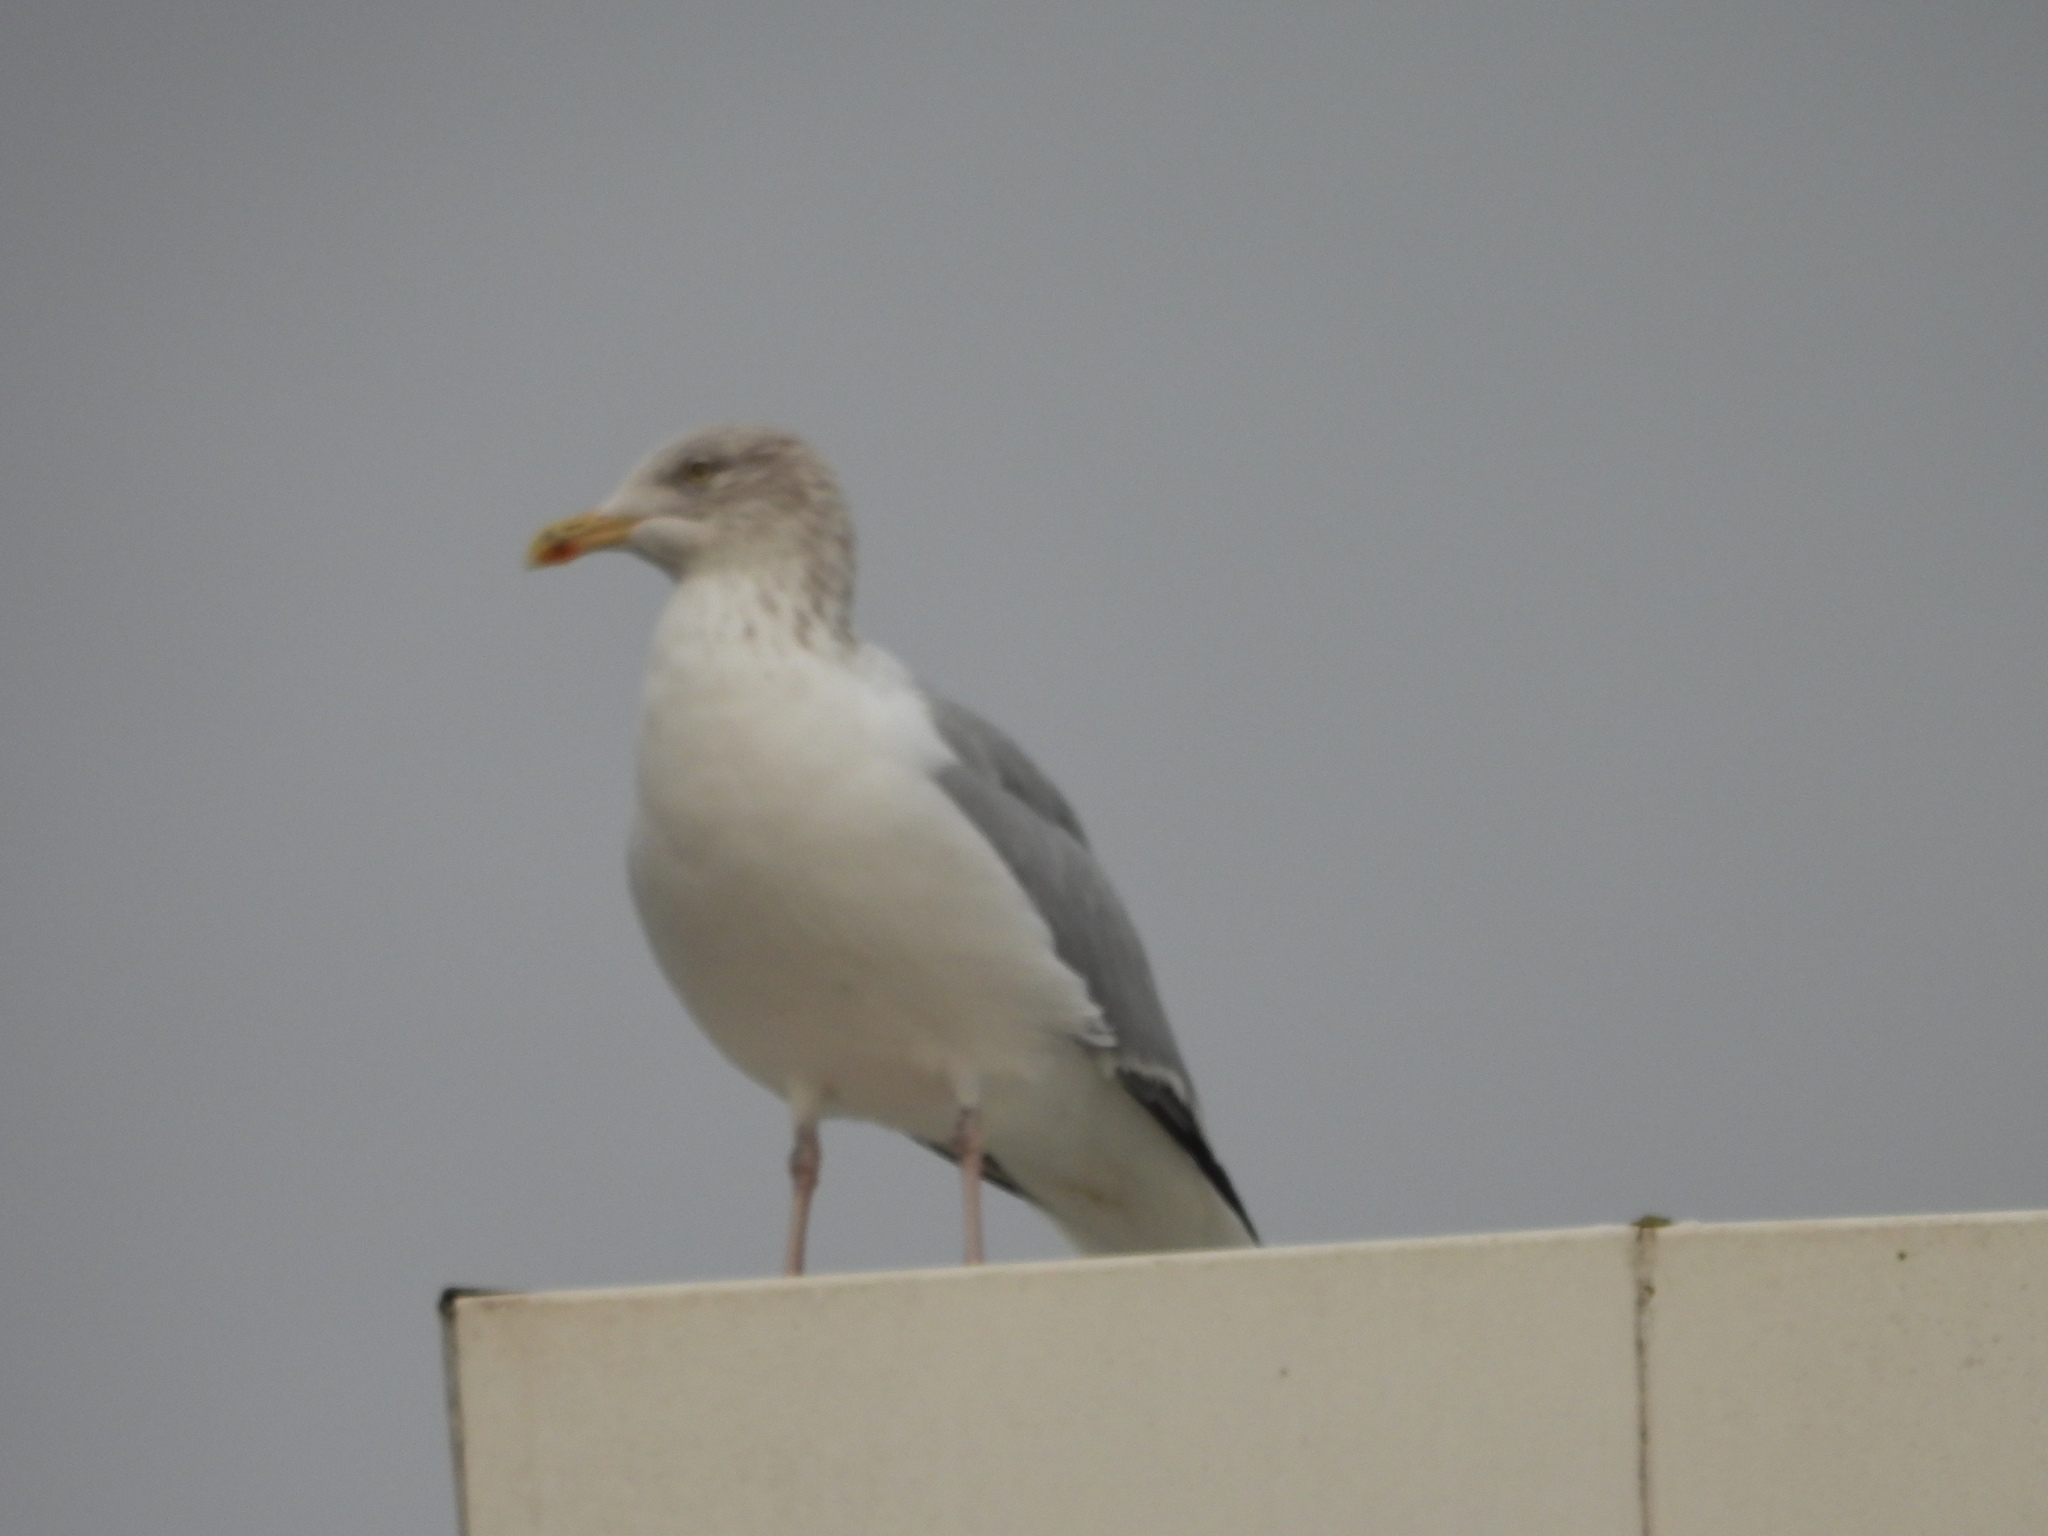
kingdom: Animalia
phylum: Chordata
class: Aves
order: Charadriiformes
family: Laridae
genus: Larus
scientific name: Larus argentatus
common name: Herring gull
